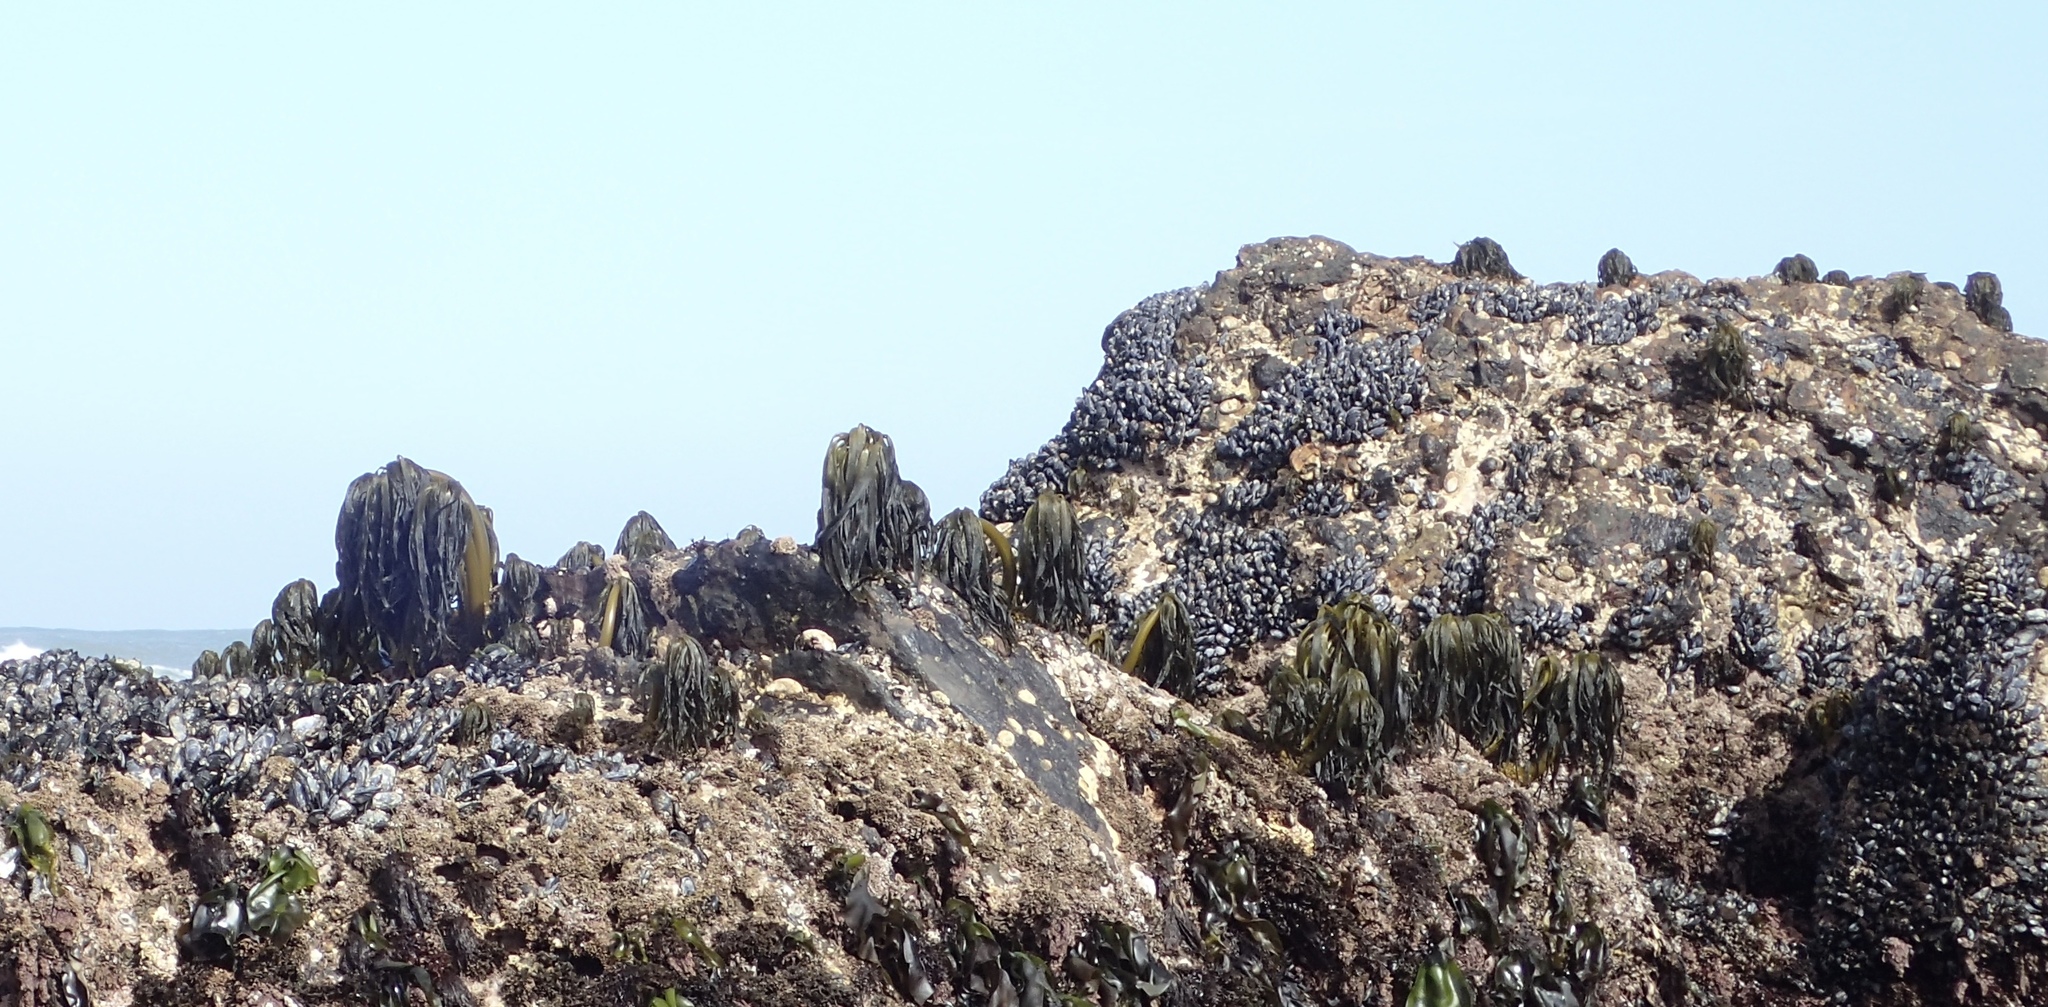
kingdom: Chromista
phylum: Ochrophyta
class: Phaeophyceae
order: Laminariales
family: Laminariaceae
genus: Postelsia
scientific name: Postelsia palmiformis
